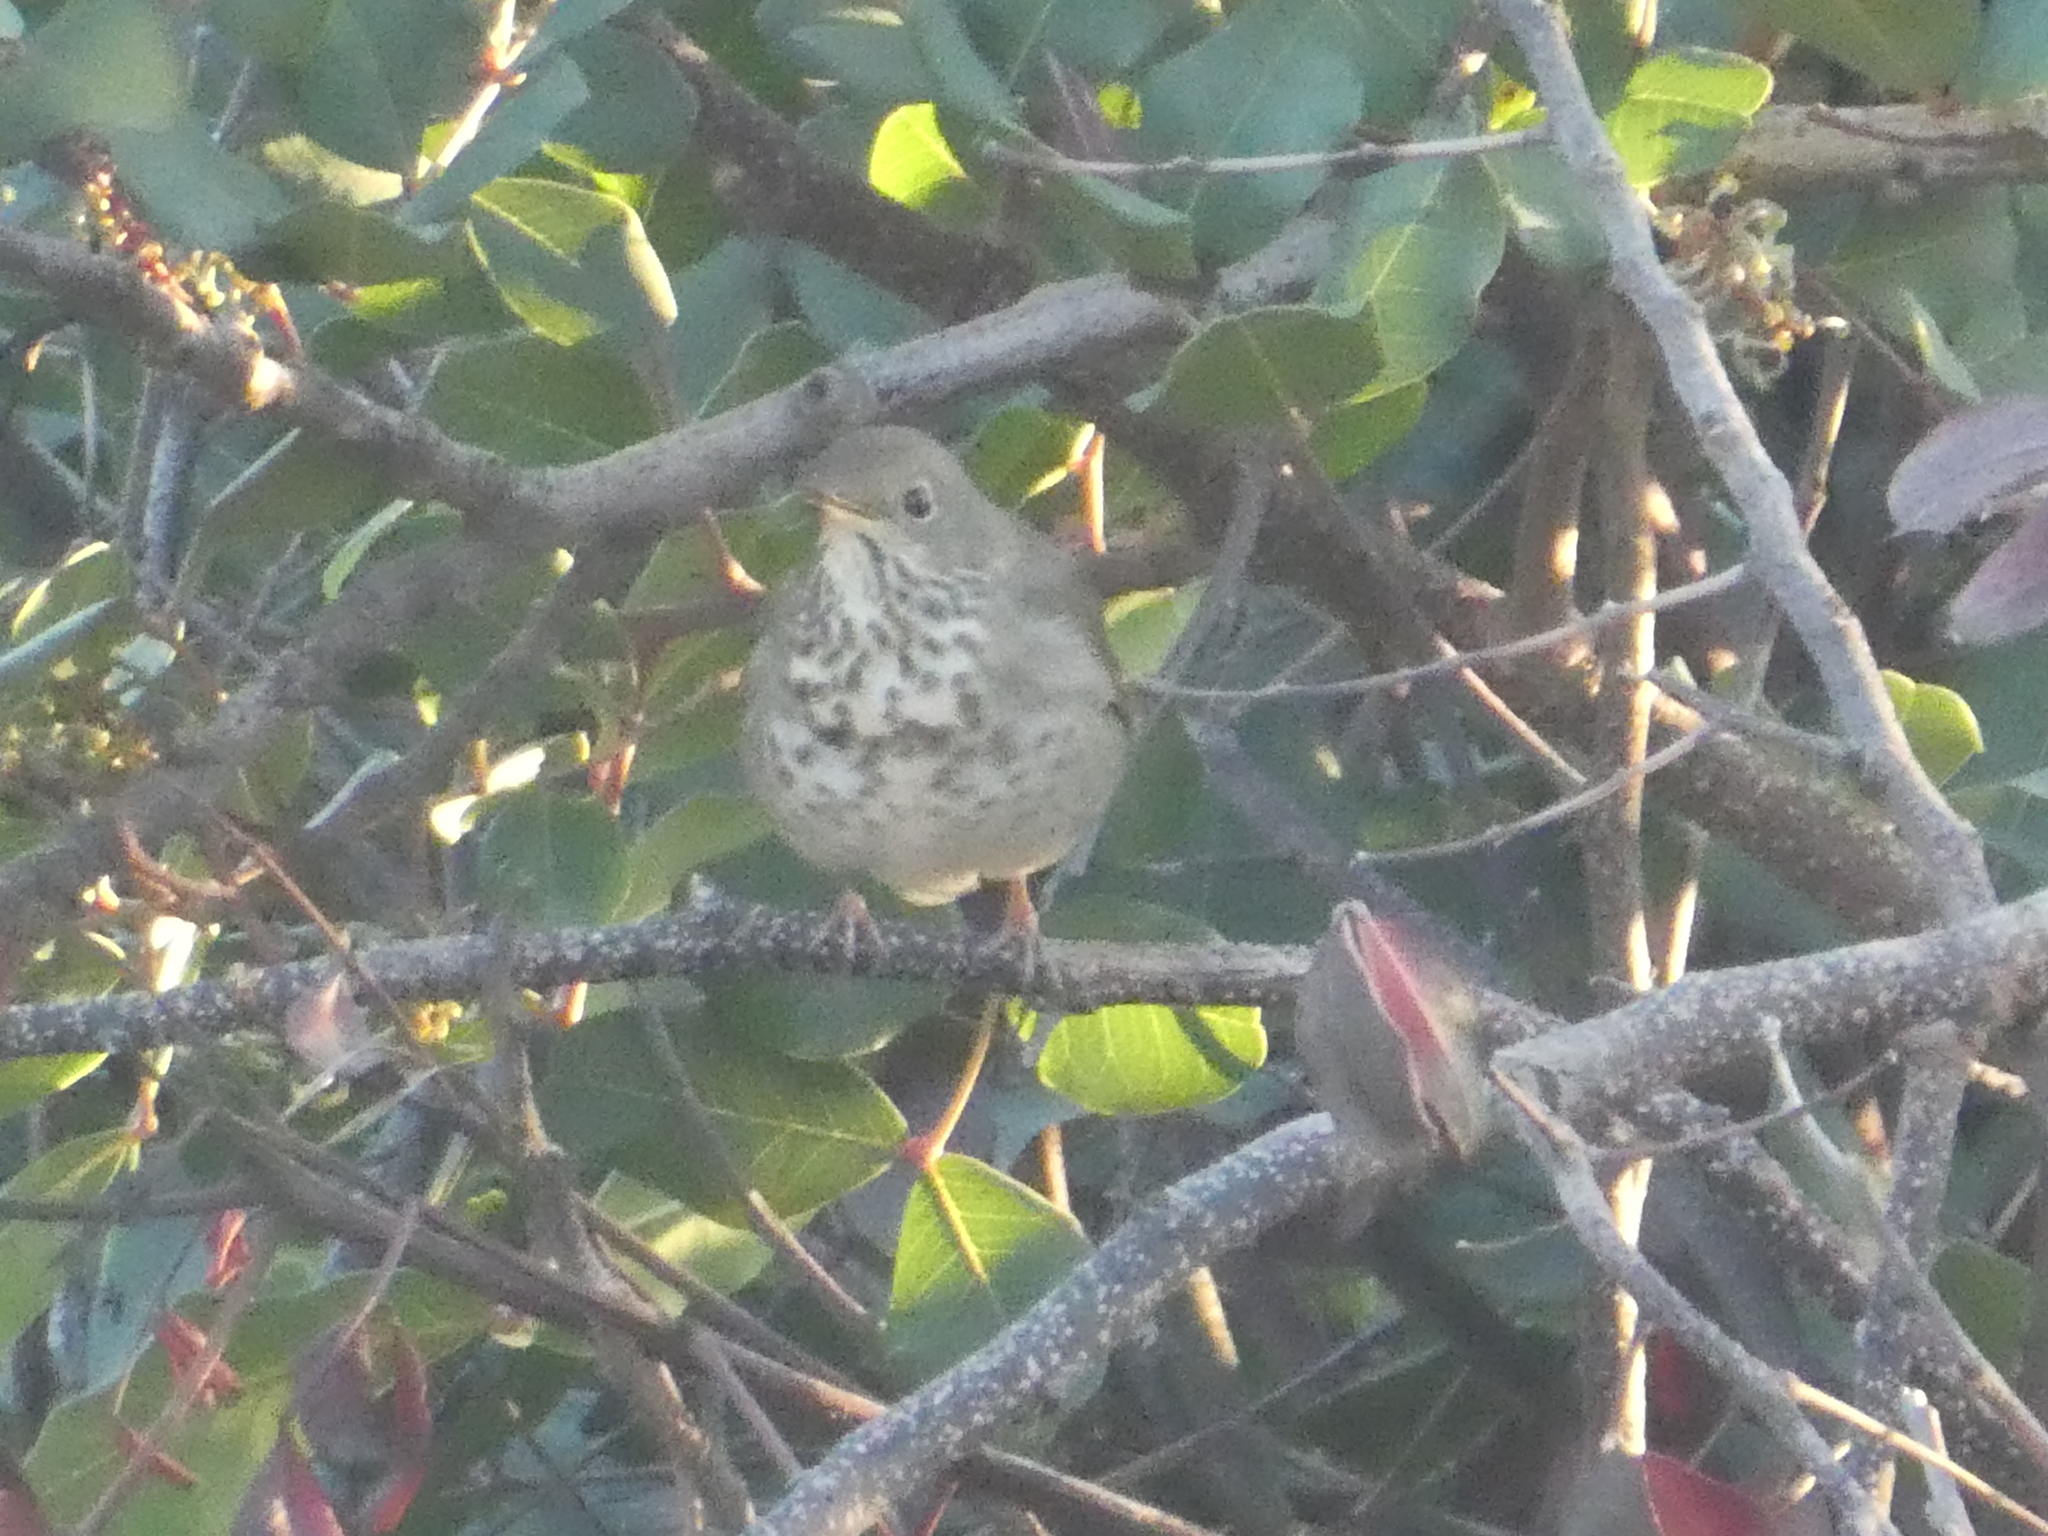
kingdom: Animalia
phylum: Chordata
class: Aves
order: Passeriformes
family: Turdidae
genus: Catharus
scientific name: Catharus guttatus
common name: Hermit thrush
